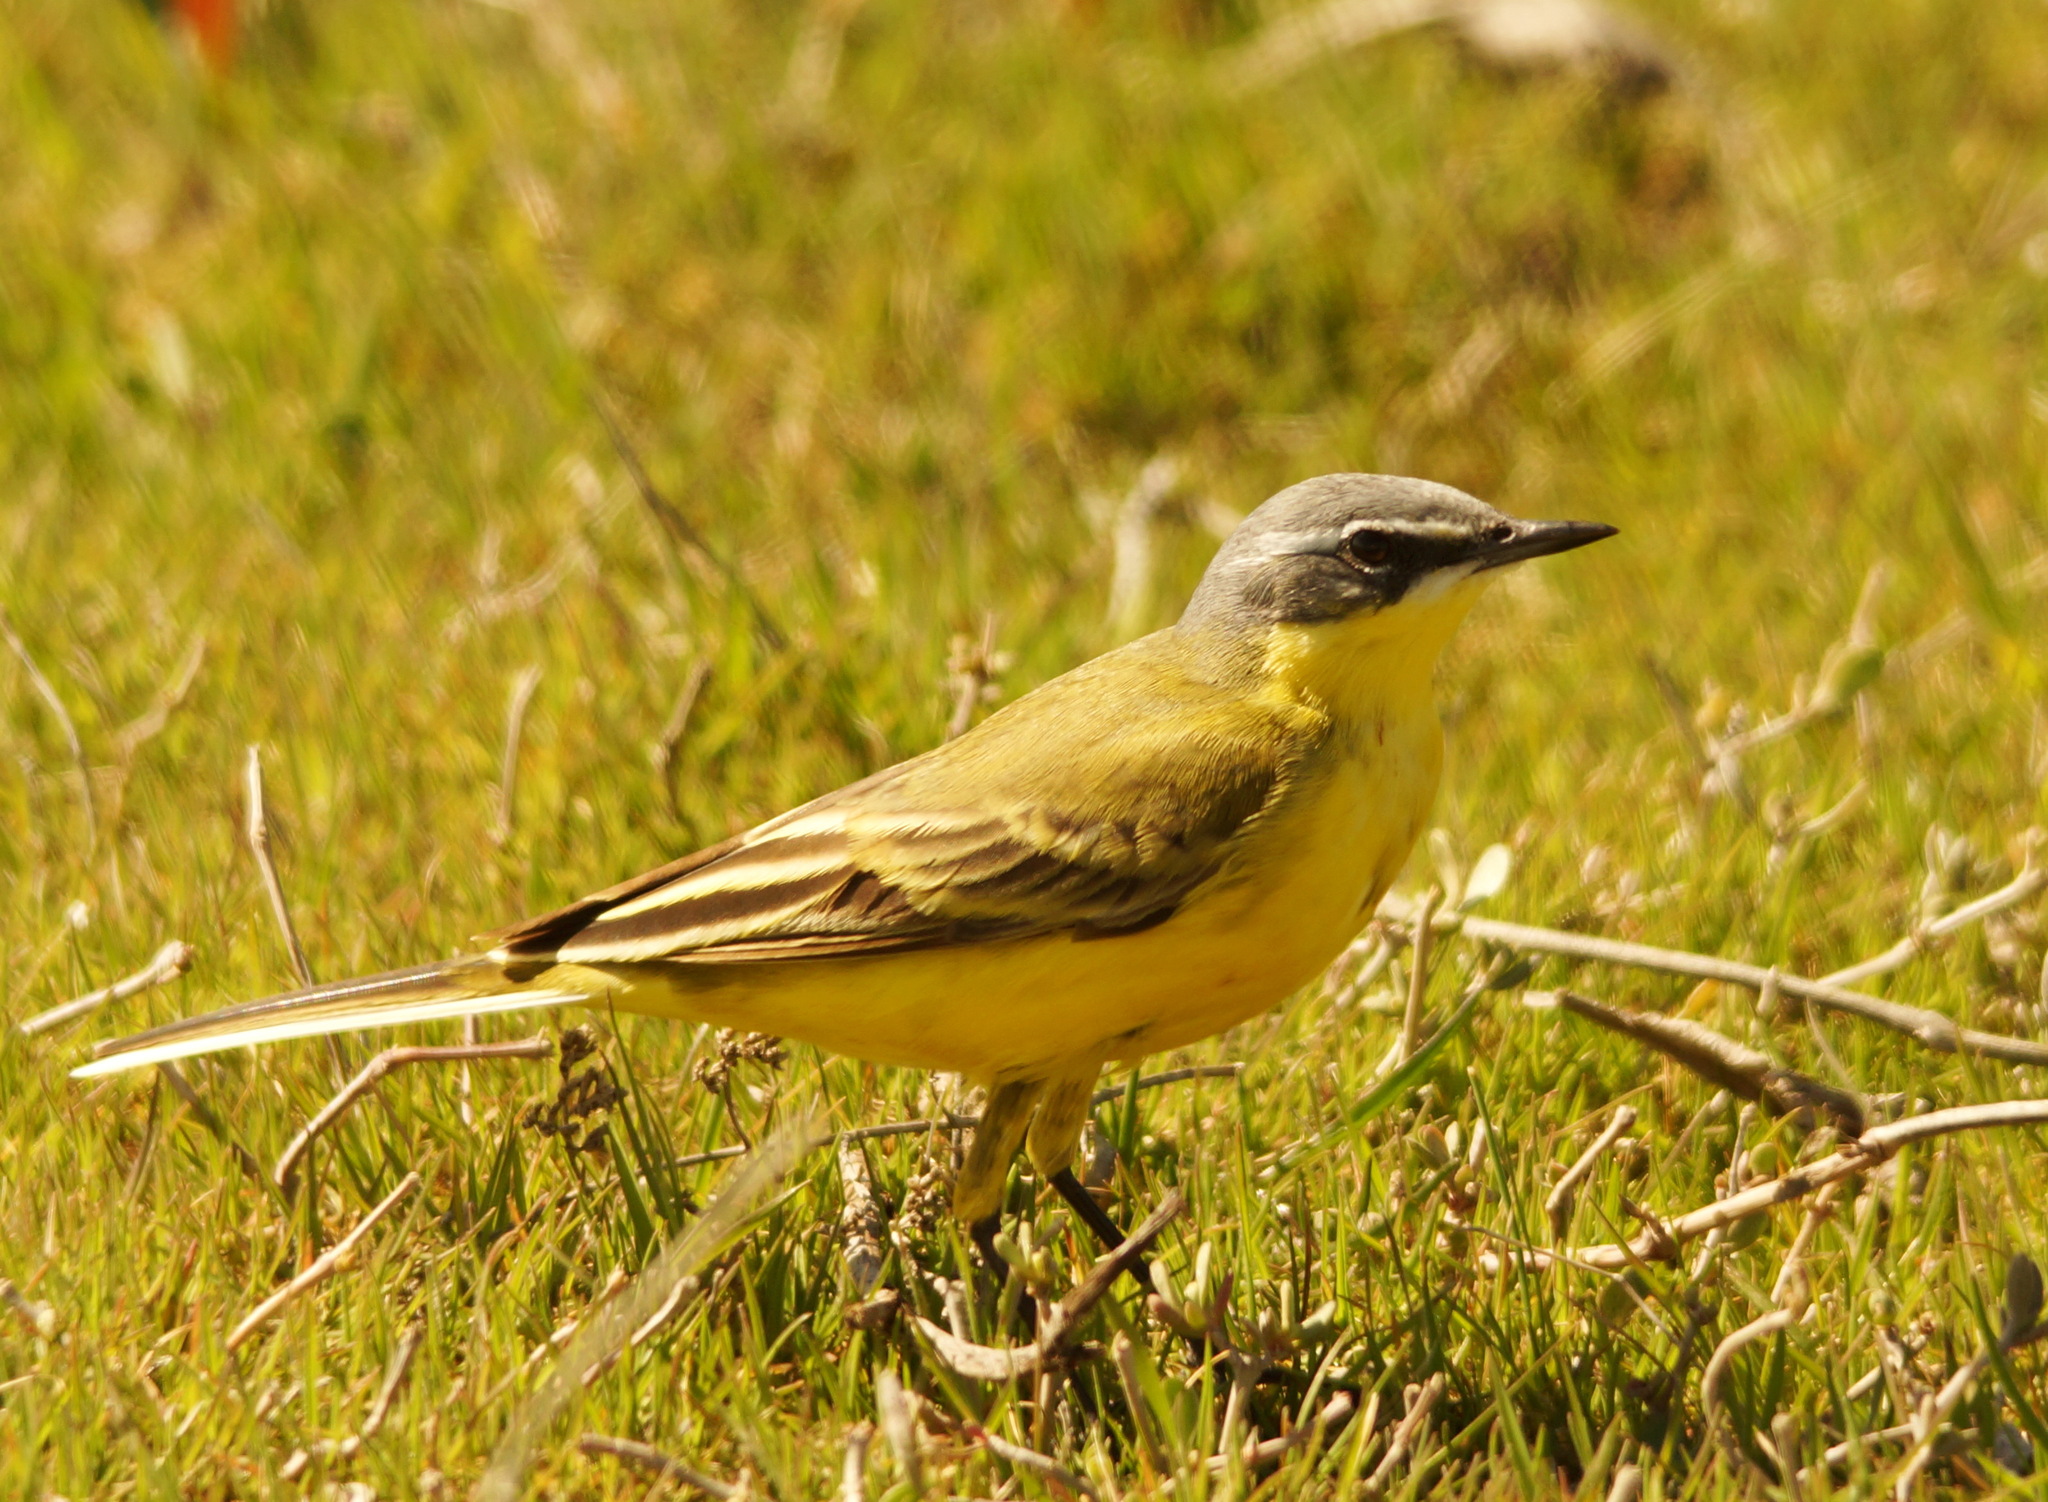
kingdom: Animalia
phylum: Chordata
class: Aves
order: Passeriformes
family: Motacillidae
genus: Motacilla
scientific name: Motacilla flava
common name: Western yellow wagtail
